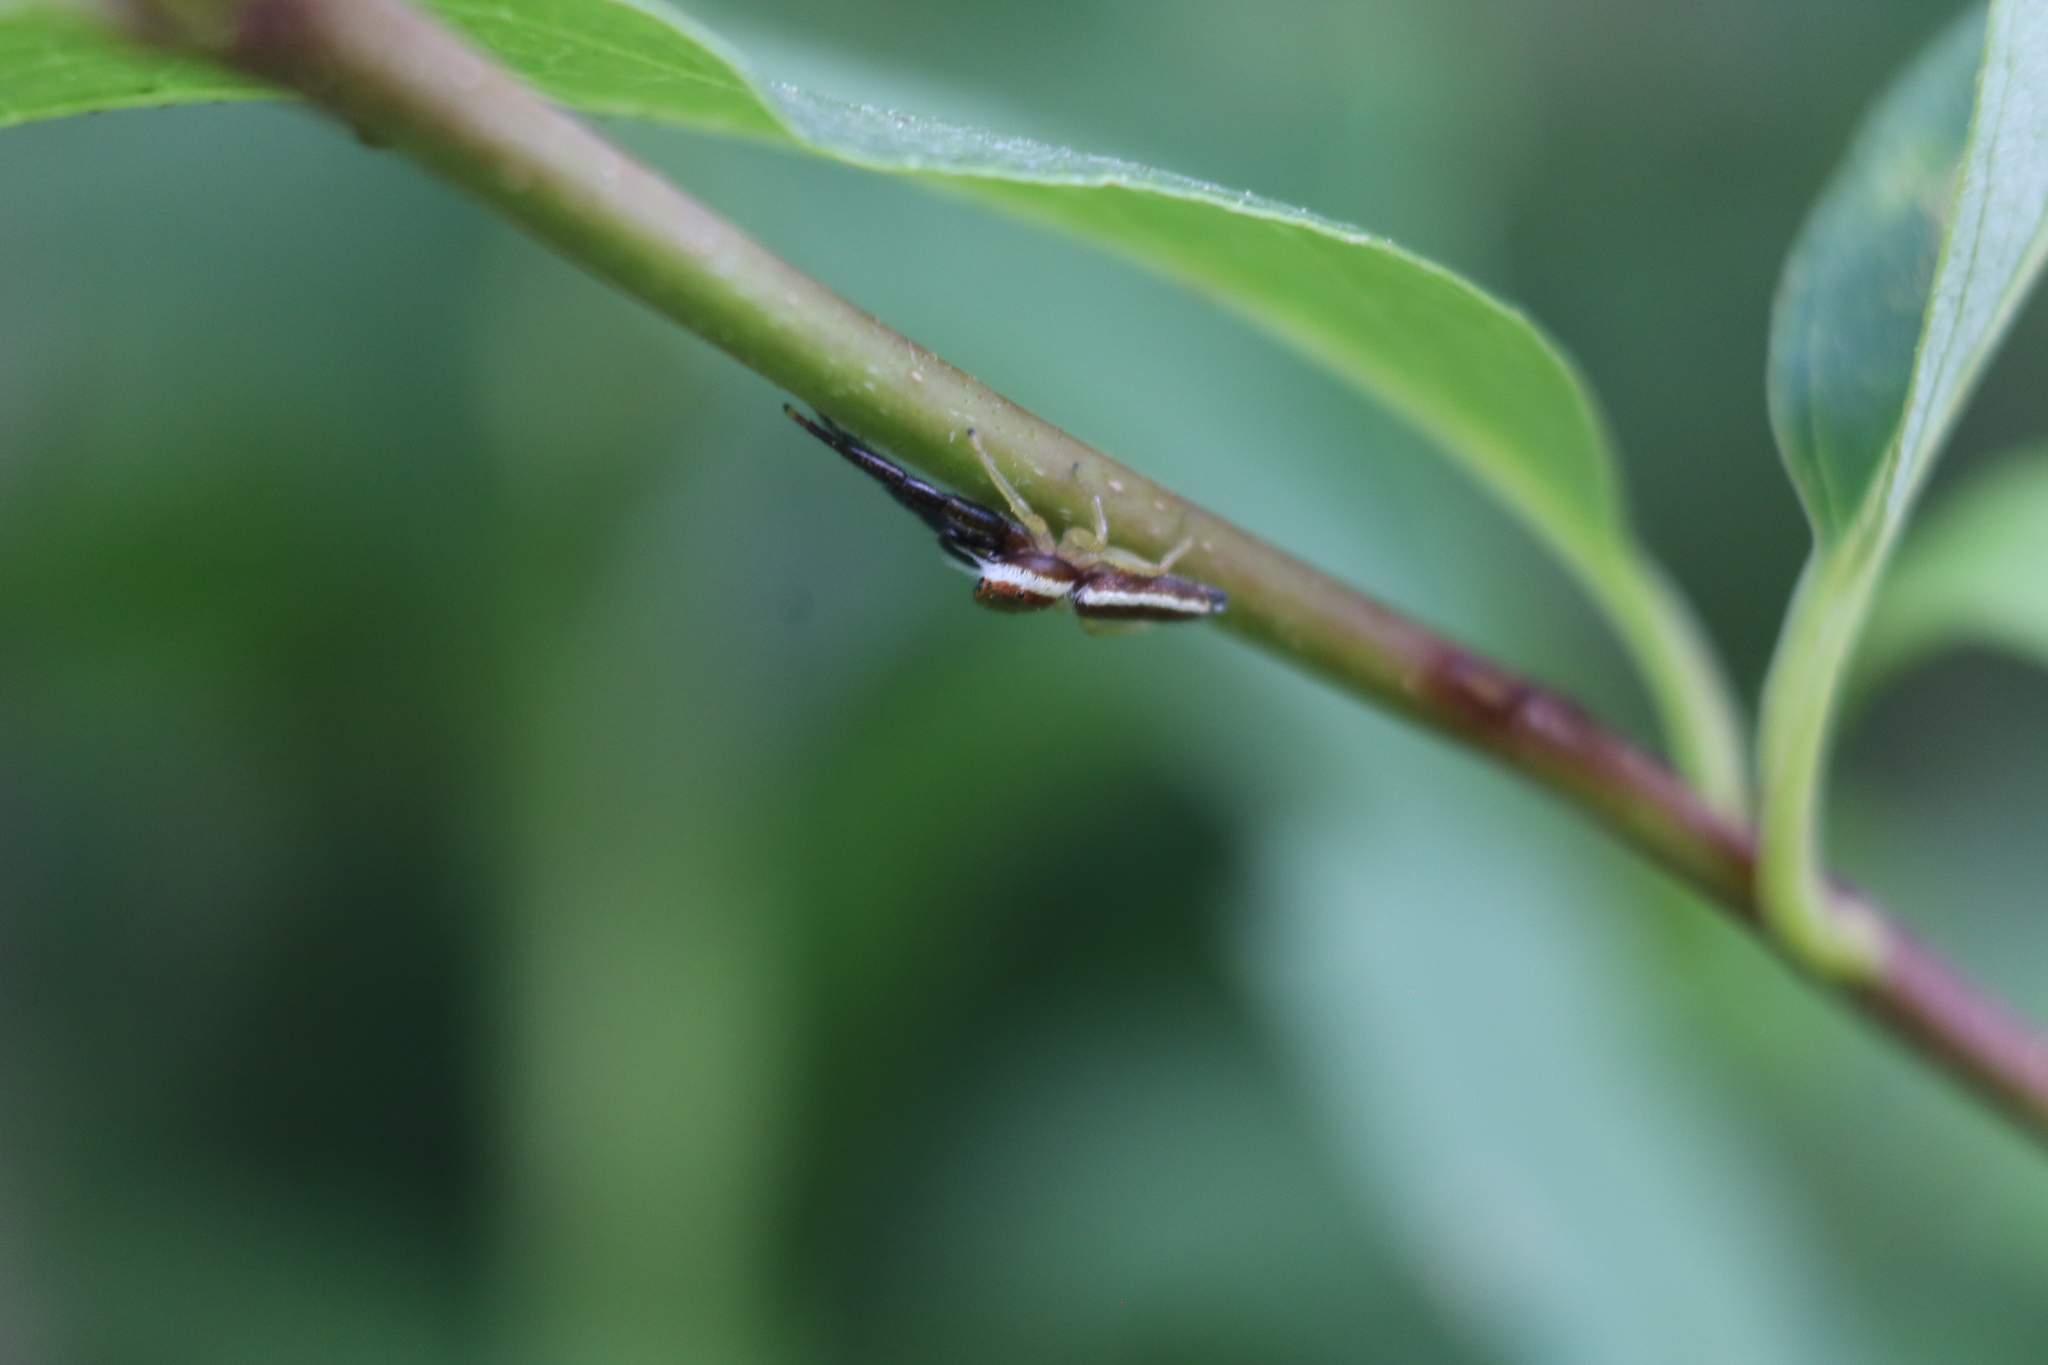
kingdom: Animalia
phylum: Arthropoda
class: Arachnida
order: Araneae
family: Salticidae
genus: Hentzia
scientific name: Hentzia palmarum
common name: Common hentz jumping spider
